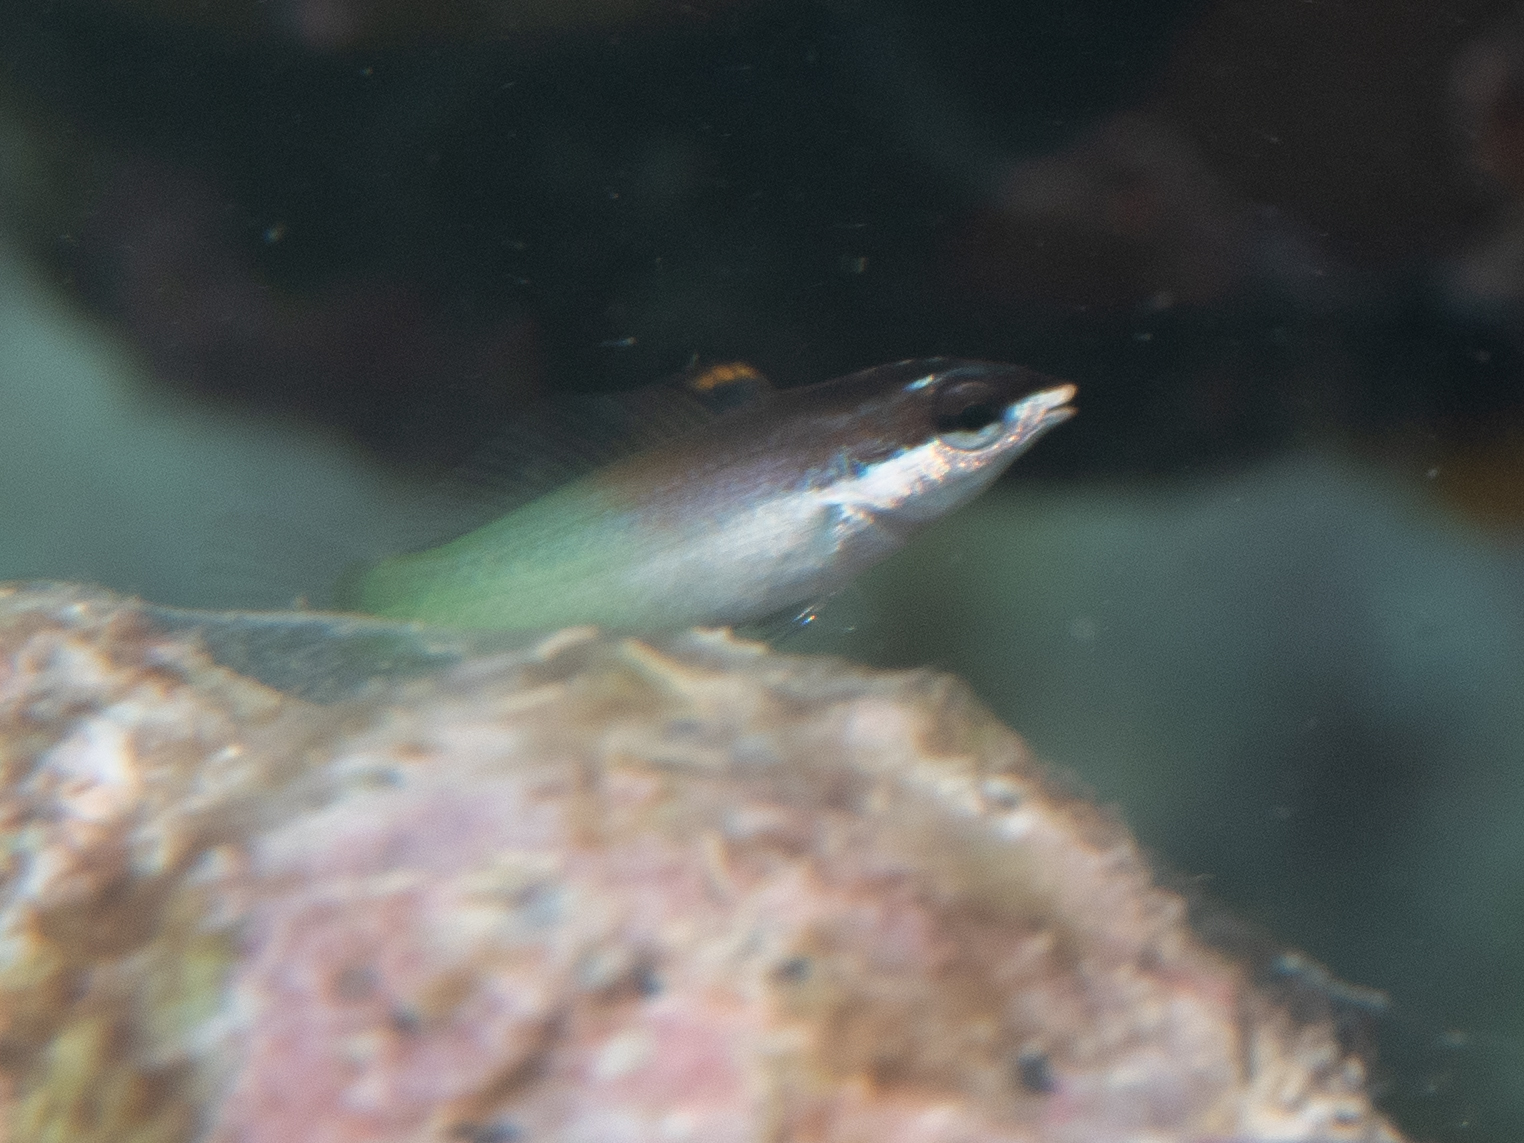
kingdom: Animalia
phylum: Chordata
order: Perciformes
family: Labridae
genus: Gomphosus
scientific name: Gomphosus caeruleus
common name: Bird wrasse
